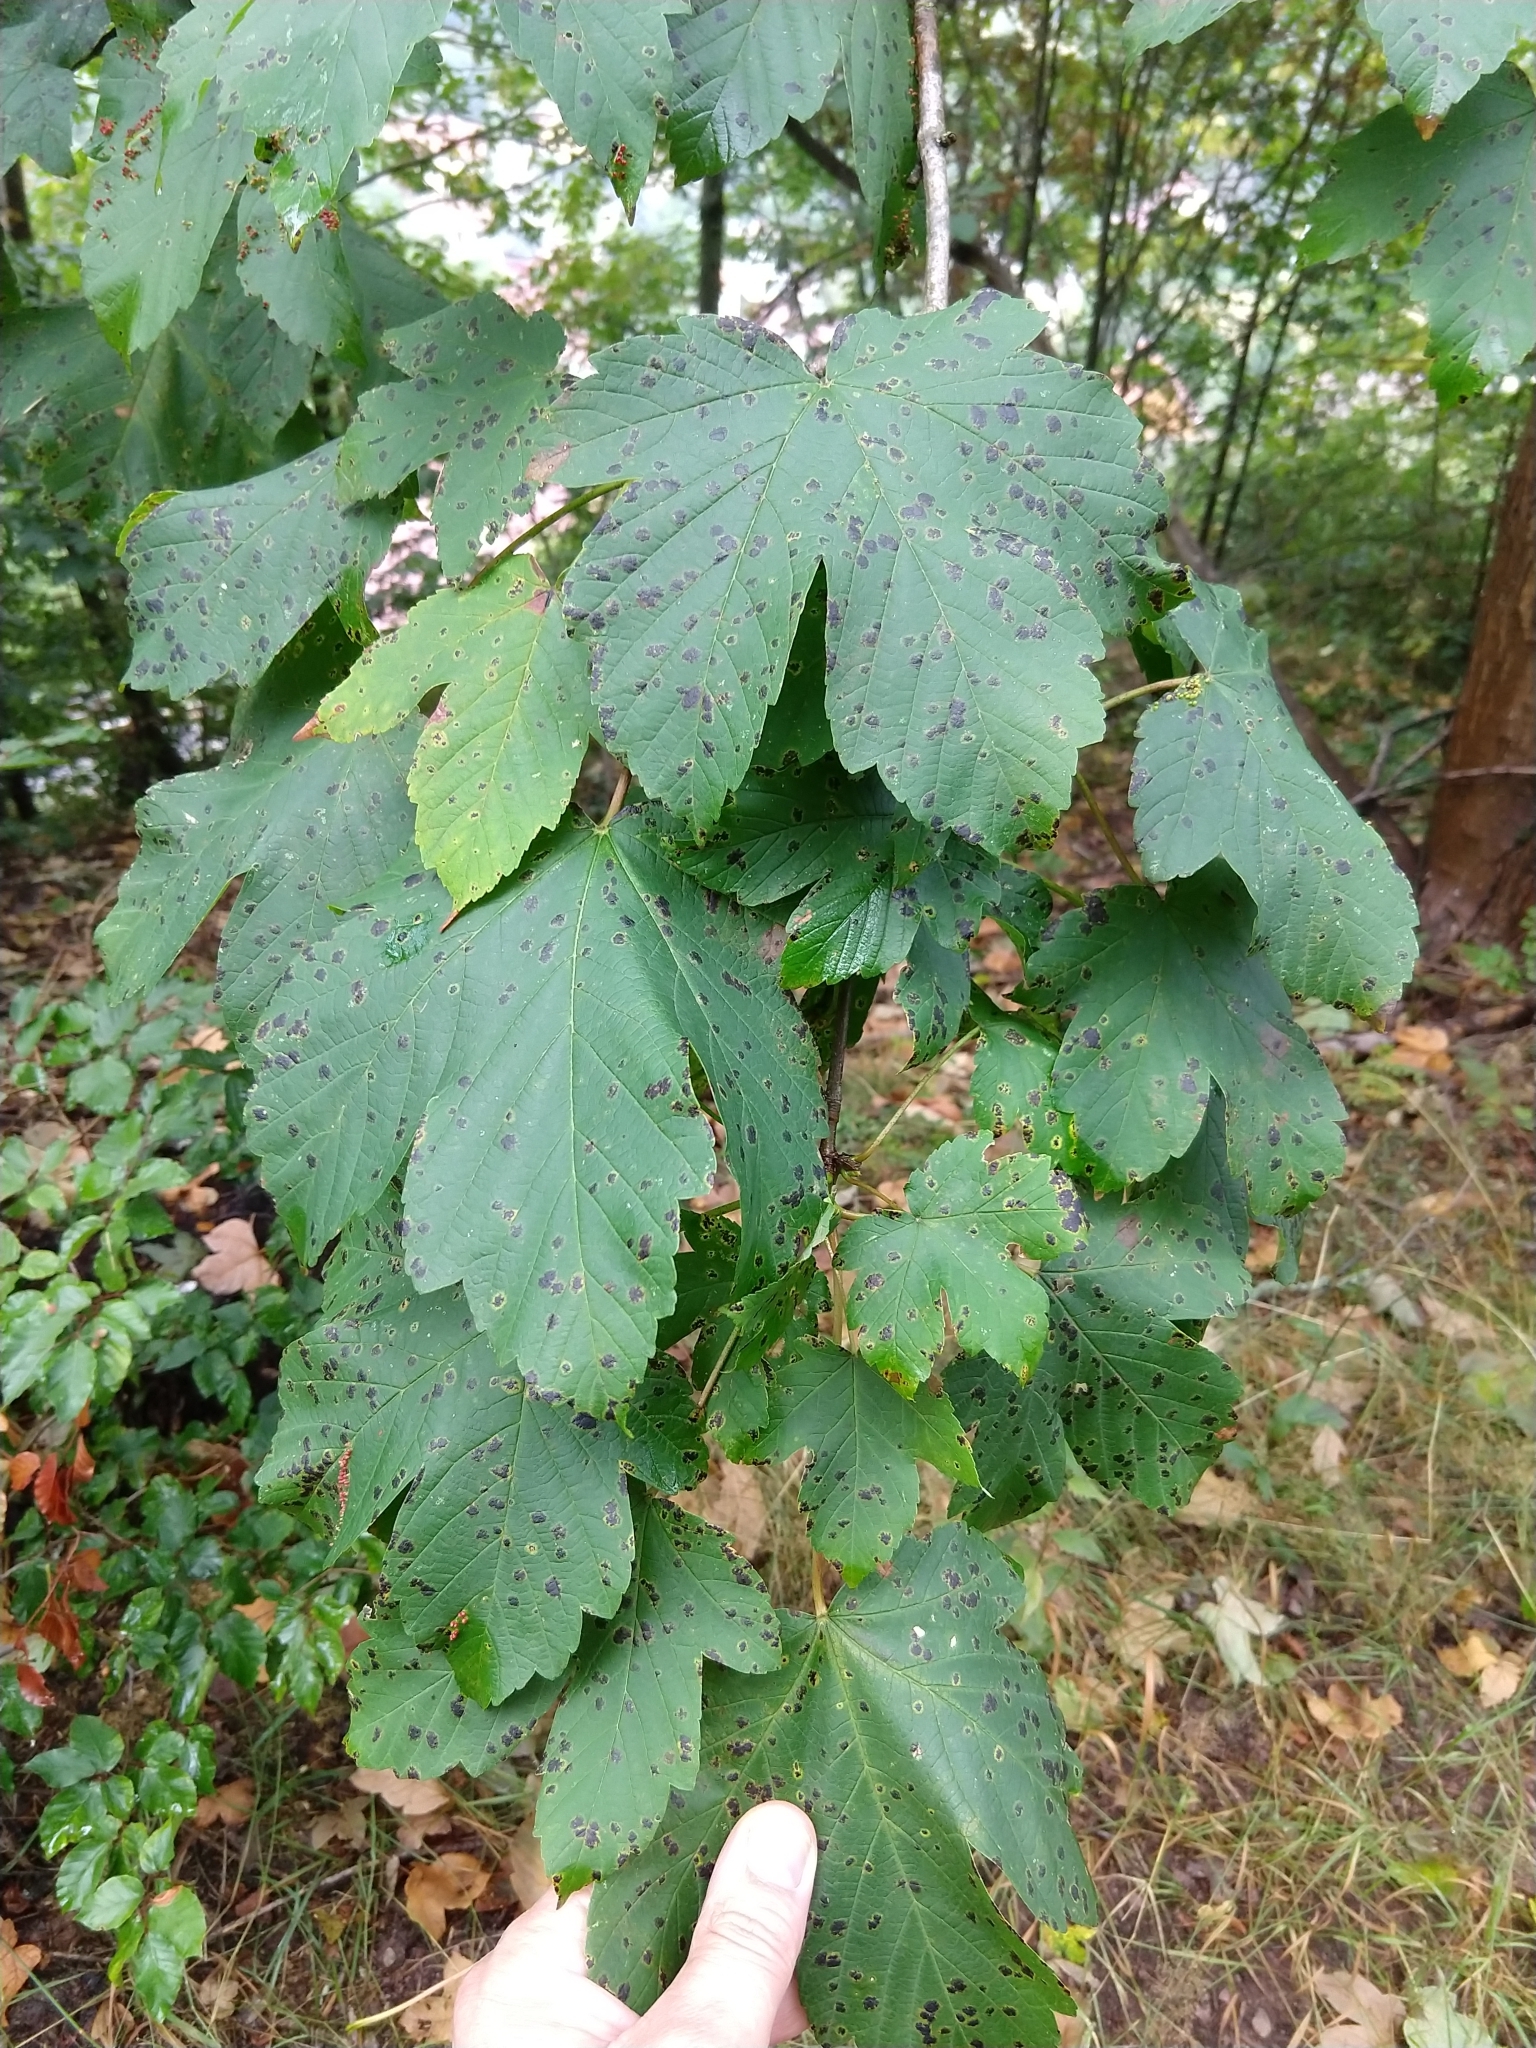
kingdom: Plantae
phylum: Tracheophyta
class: Magnoliopsida
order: Sapindales
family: Sapindaceae
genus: Acer
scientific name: Acer pseudoplatanus
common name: Sycamore
